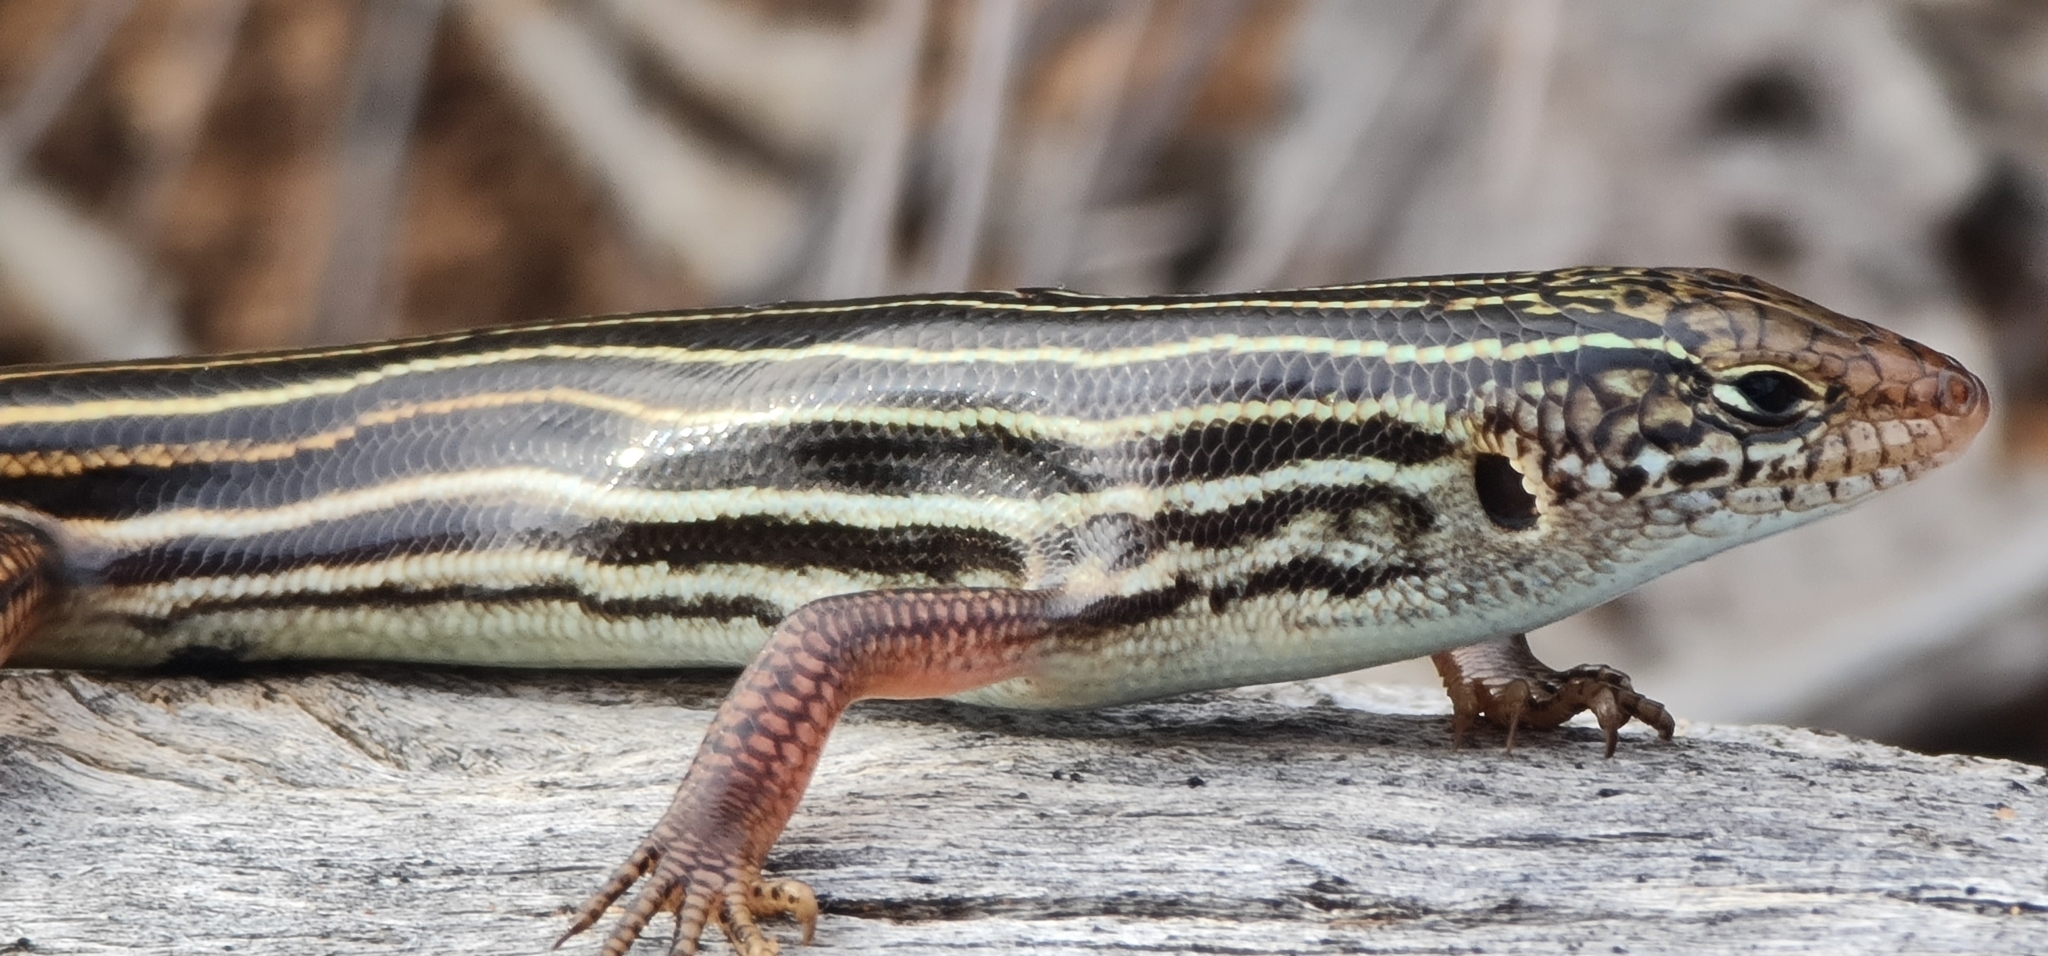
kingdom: Animalia
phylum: Chordata
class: Squamata
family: Scincidae
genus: Ctenotus
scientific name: Ctenotus atlas
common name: Southern mallee ctenotus
